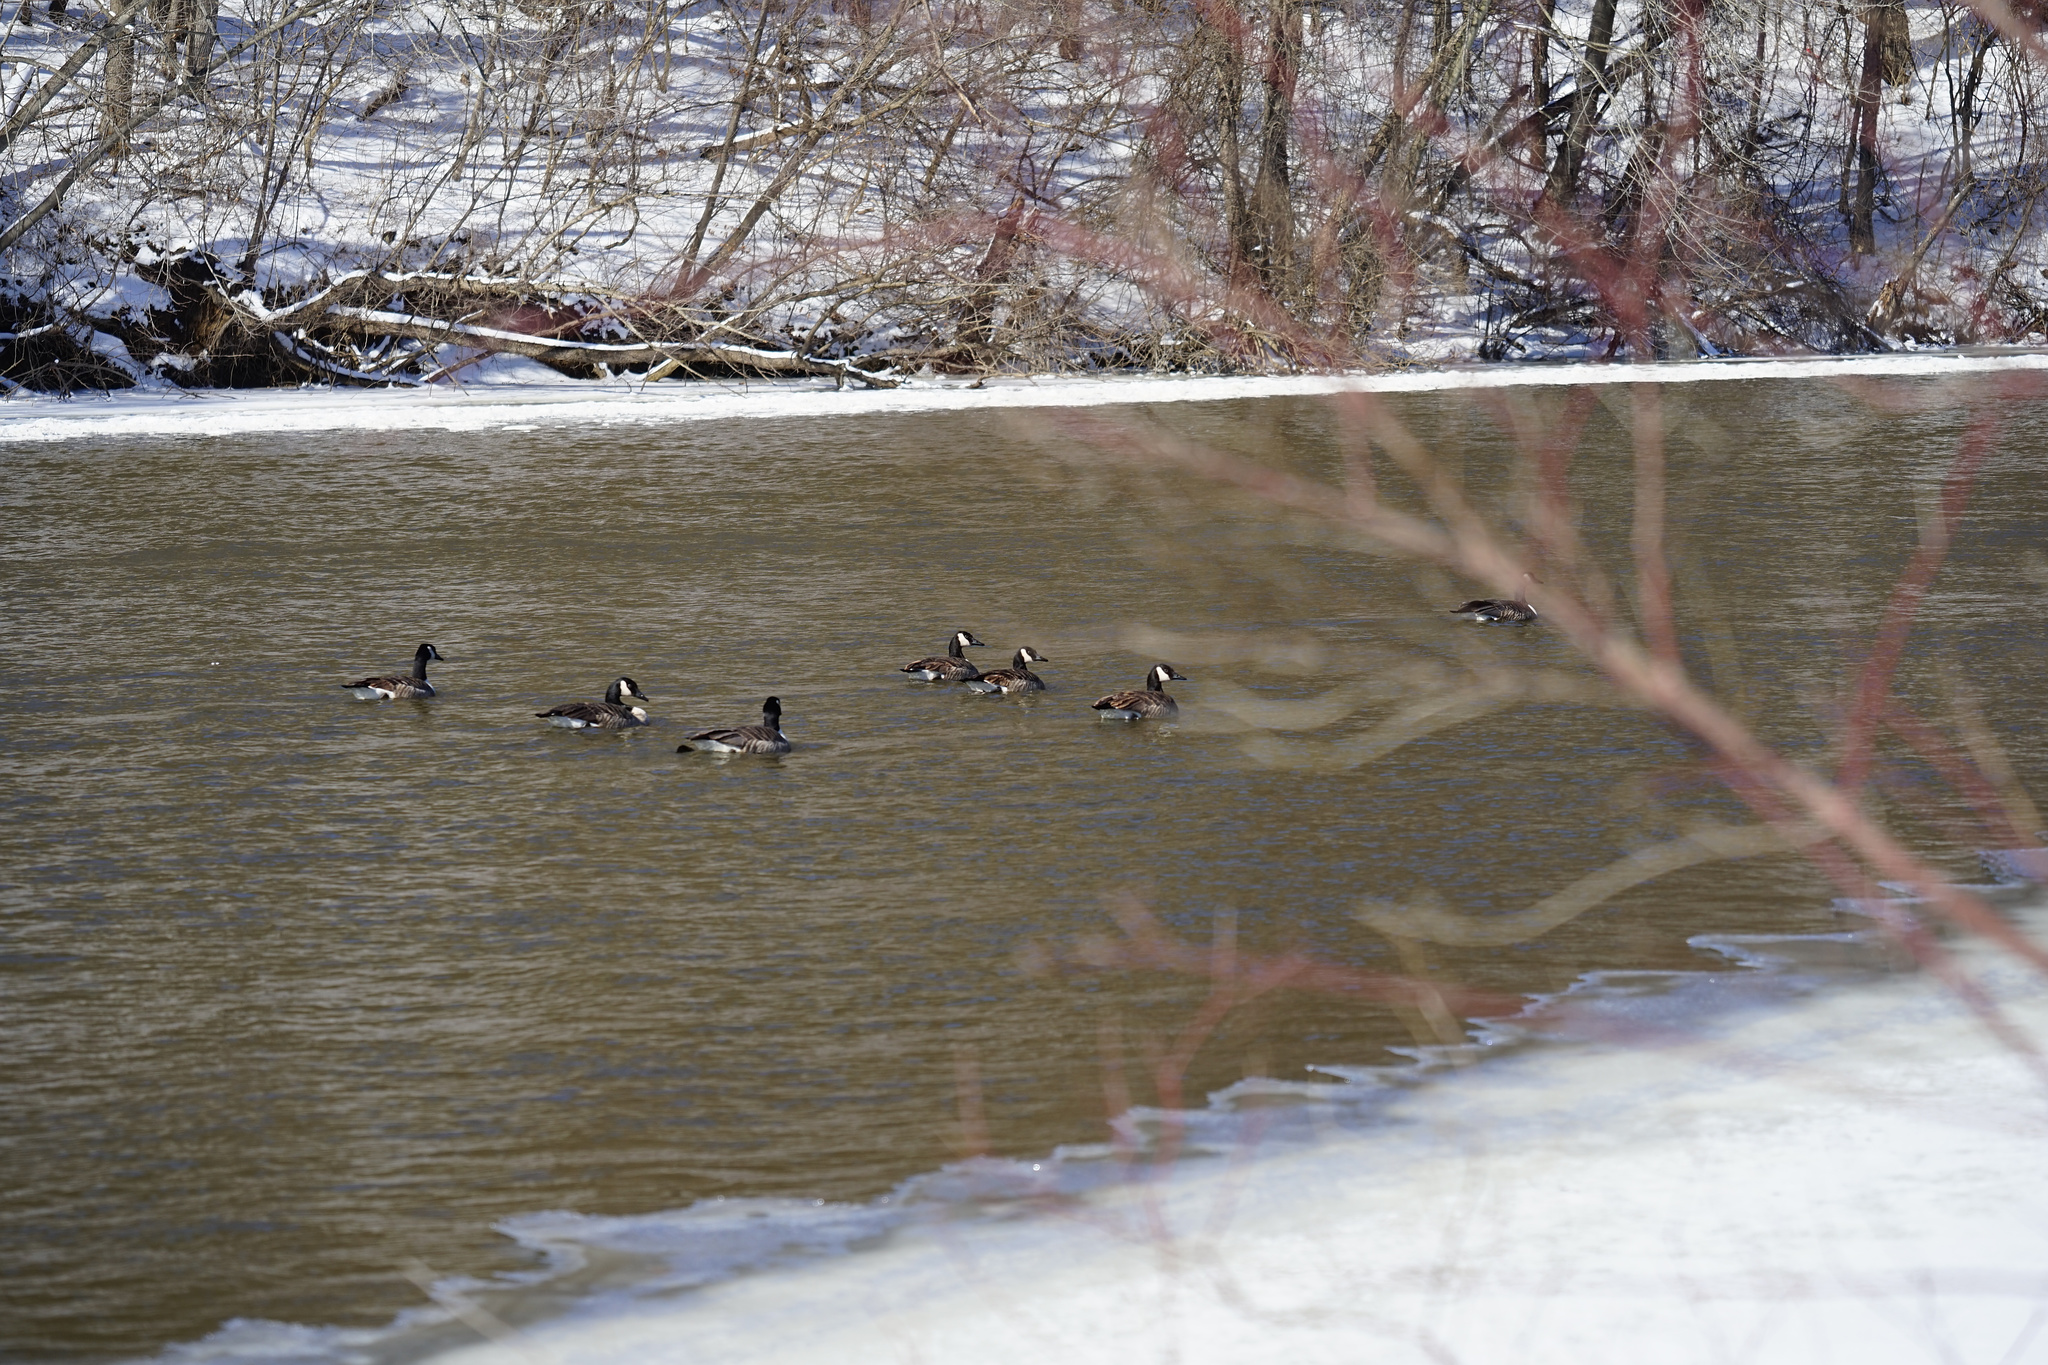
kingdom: Animalia
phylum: Chordata
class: Aves
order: Anseriformes
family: Anatidae
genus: Branta
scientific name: Branta canadensis
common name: Canada goose
